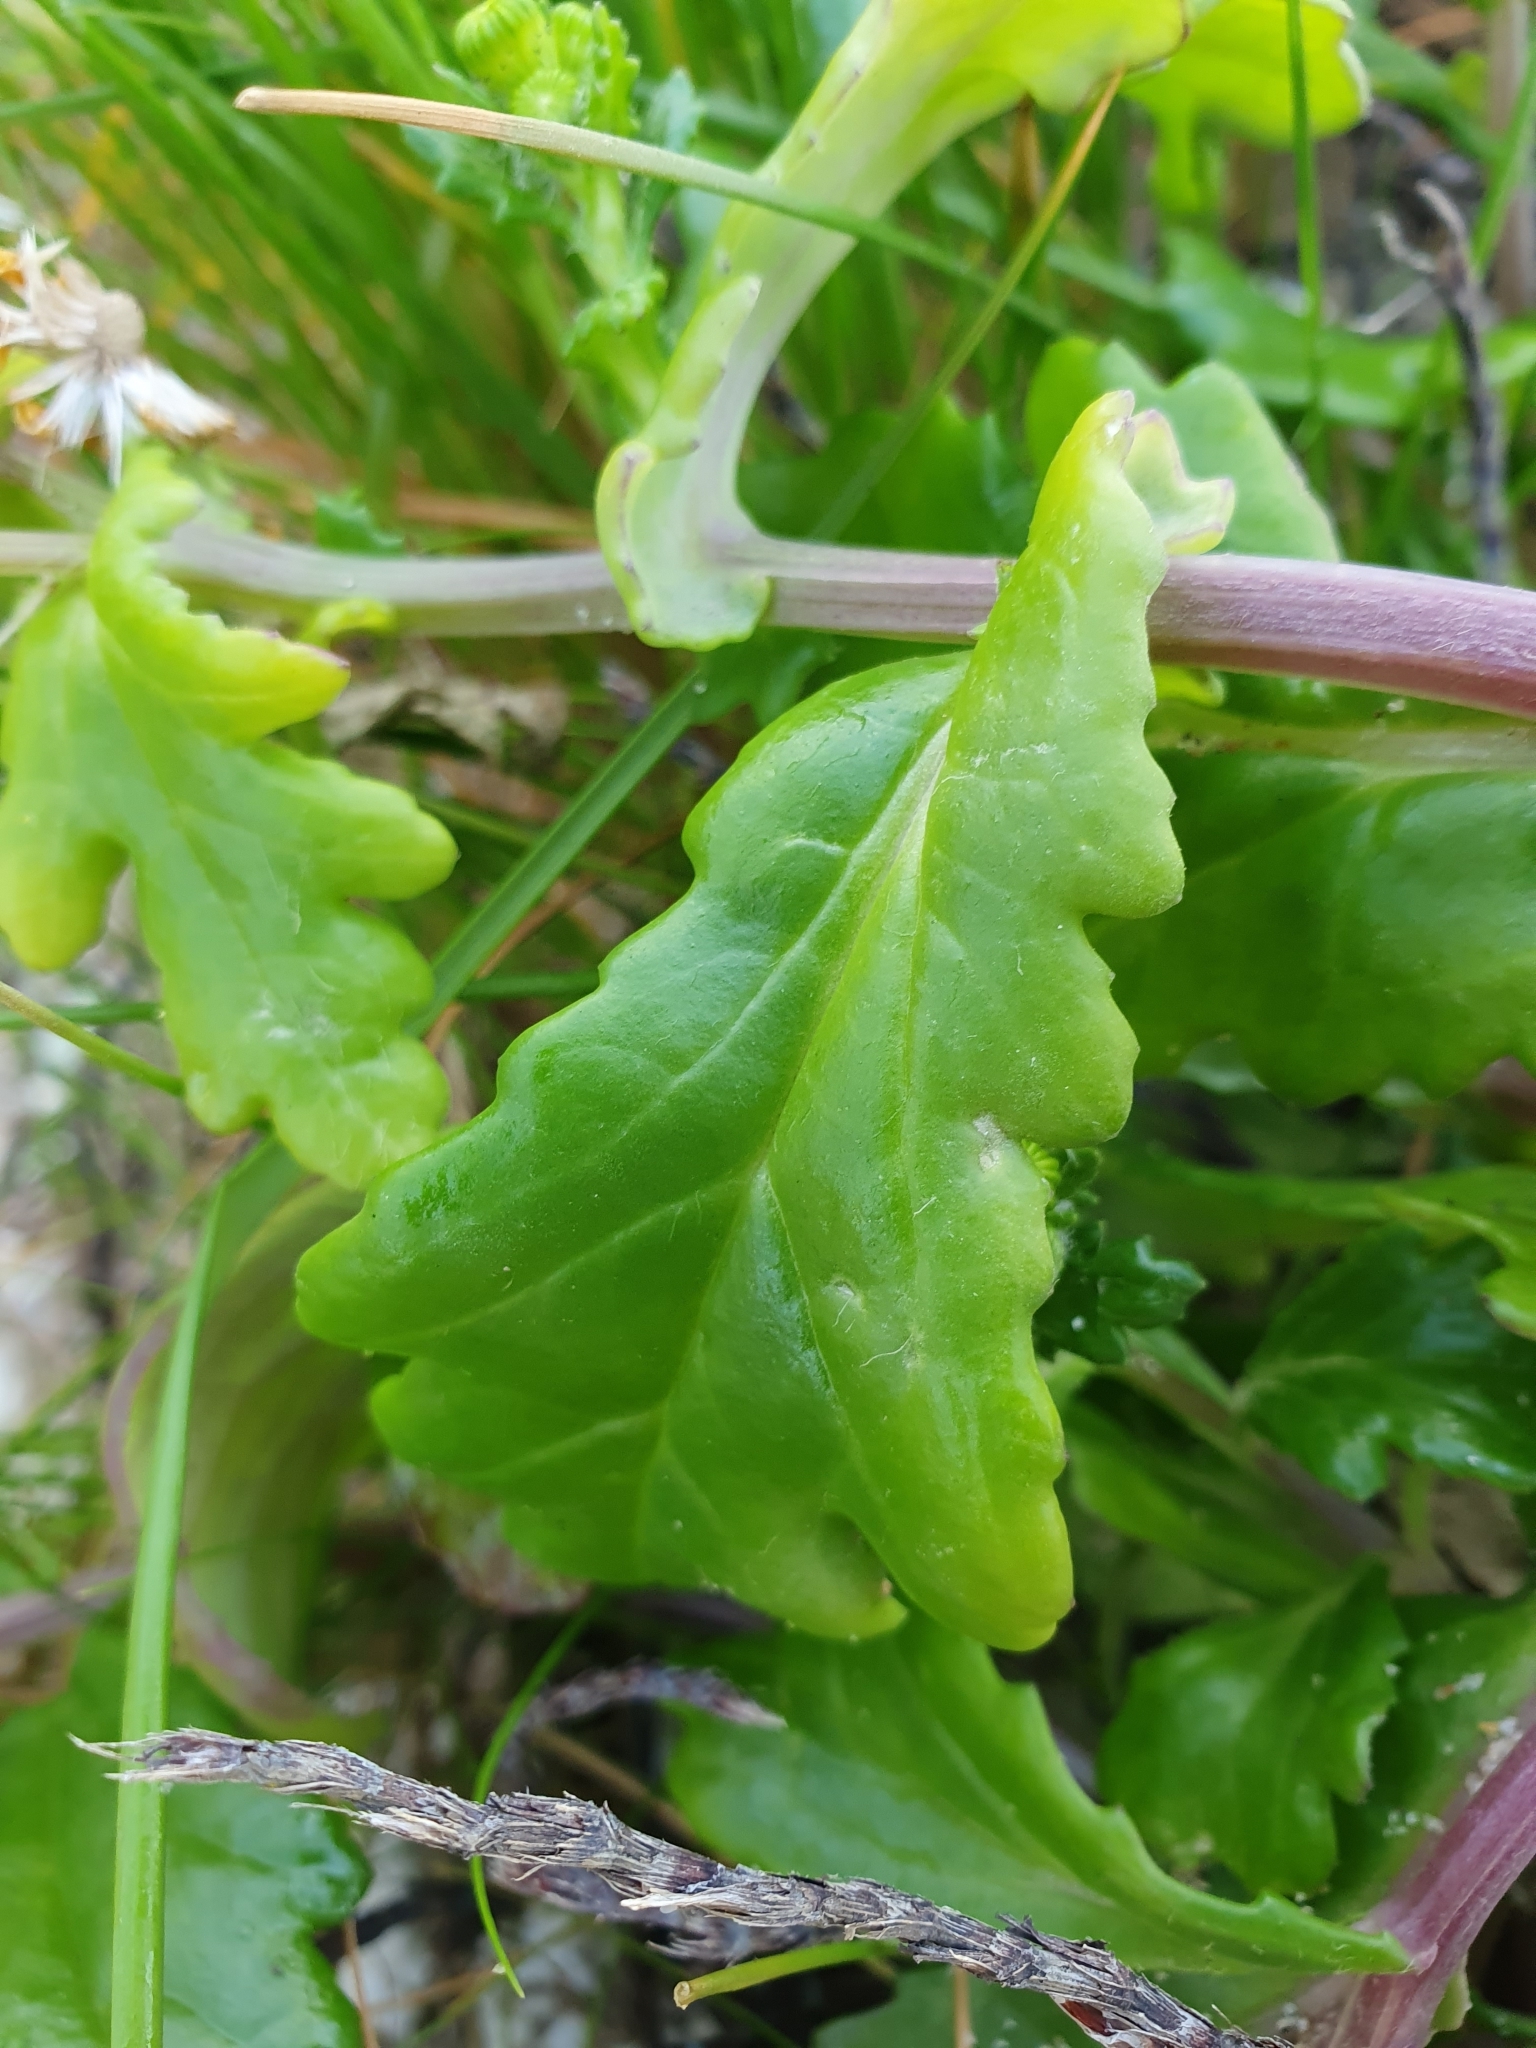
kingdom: Plantae
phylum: Tracheophyta
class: Magnoliopsida
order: Asterales
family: Asteraceae
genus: Senecio
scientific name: Senecio leucanthemifolius
